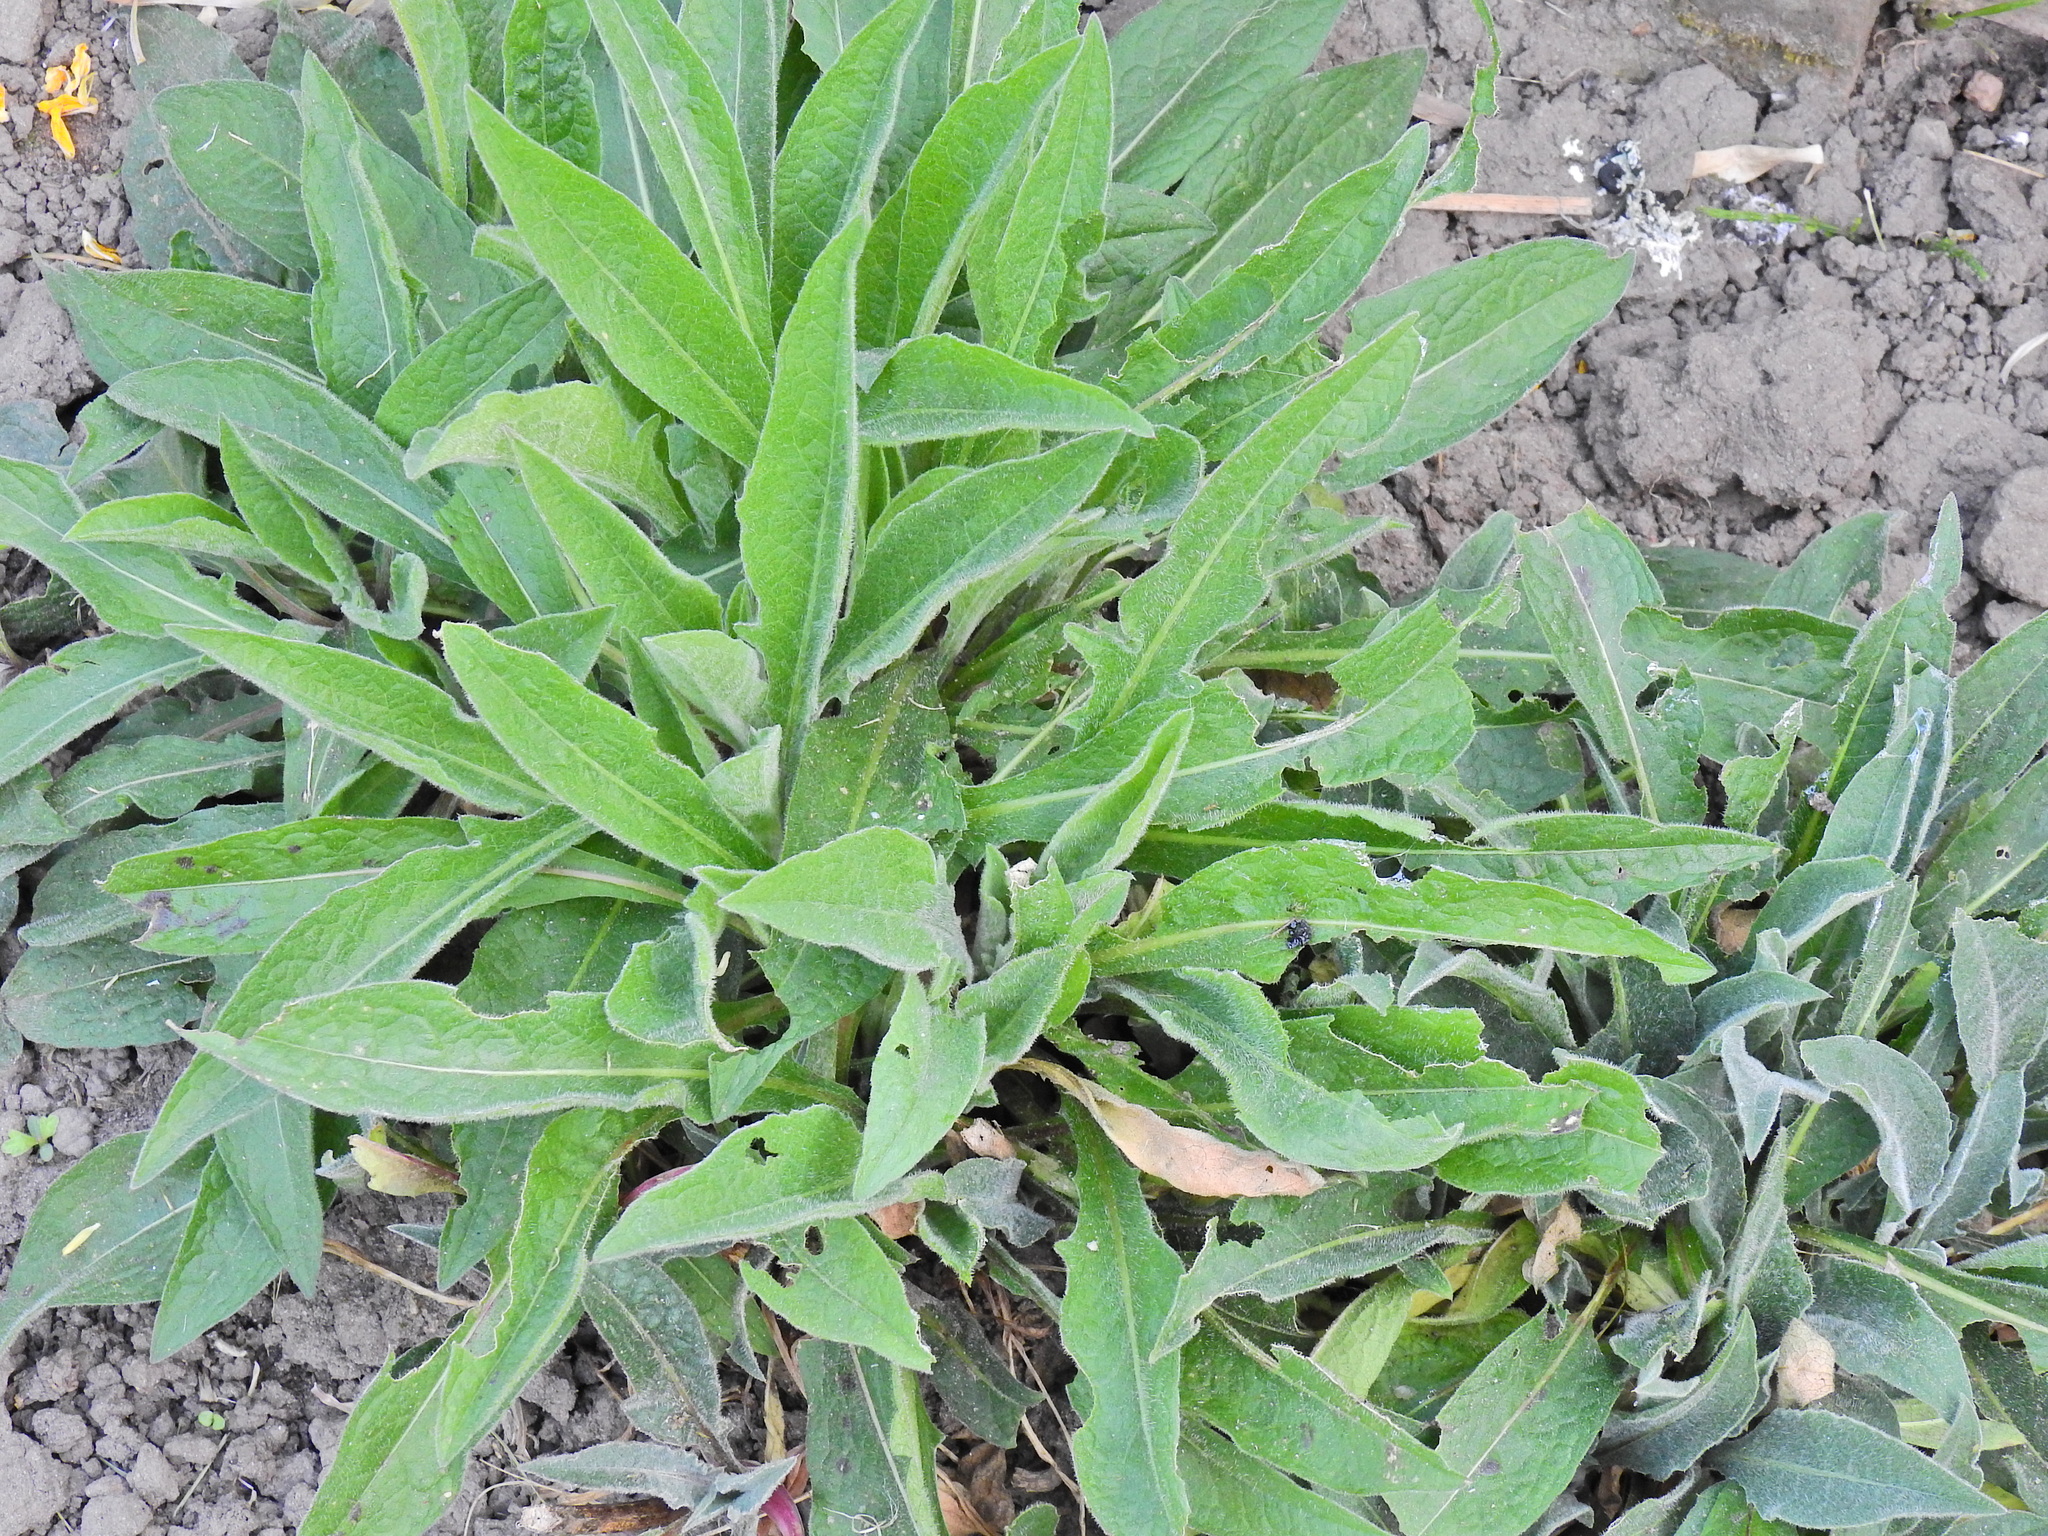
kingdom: Plantae
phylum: Tracheophyta
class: Magnoliopsida
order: Asterales
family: Asteraceae
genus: Centaurea
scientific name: Centaurea nigra
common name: Lesser knapweed
